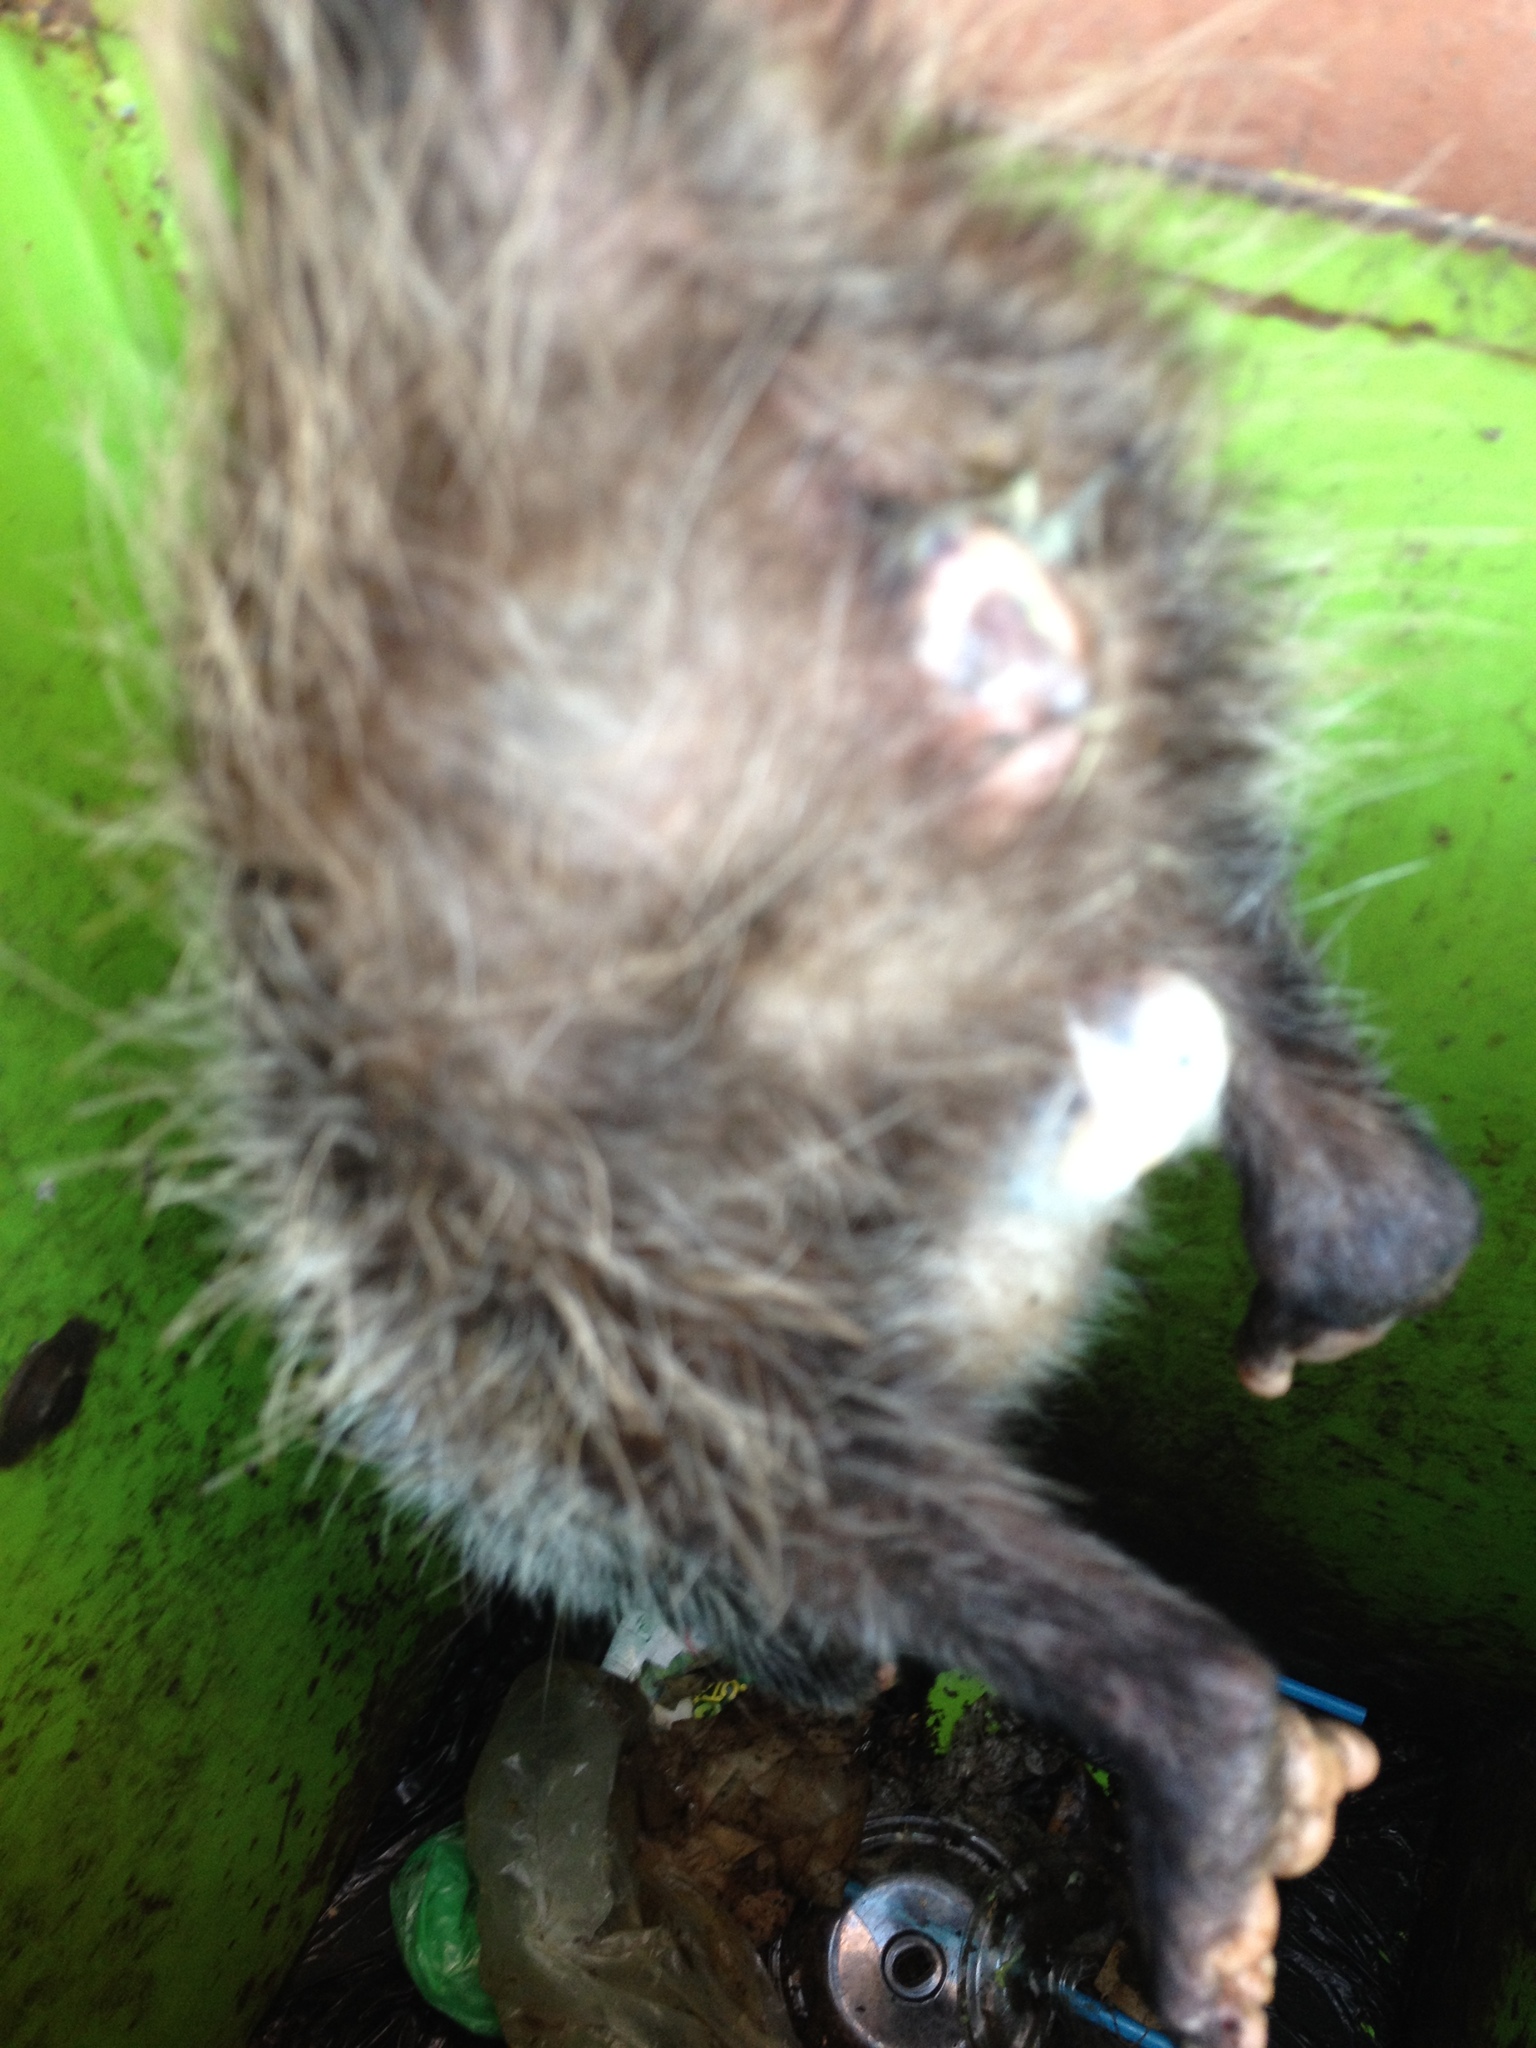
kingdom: Animalia
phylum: Chordata
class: Mammalia
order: Didelphimorphia
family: Didelphidae
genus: Didelphis
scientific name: Didelphis virginiana
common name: Virginia opossum
